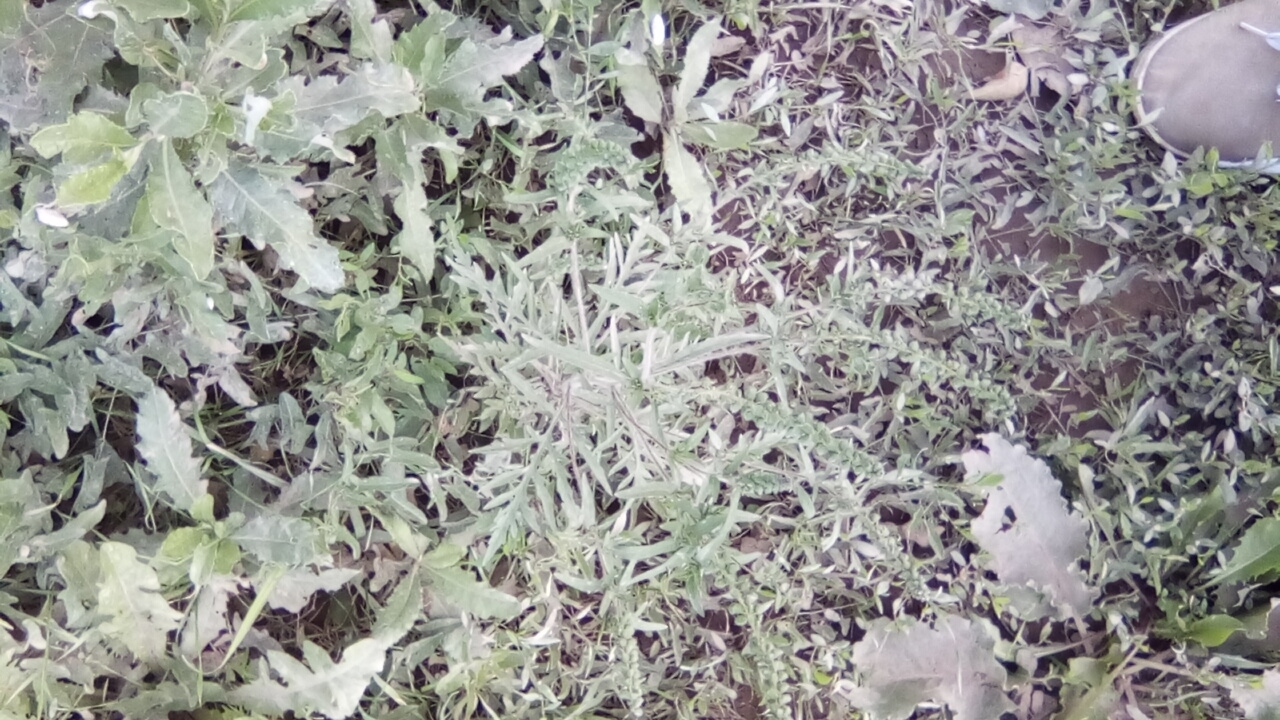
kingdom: Plantae
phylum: Tracheophyta
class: Magnoliopsida
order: Asterales
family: Asteraceae
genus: Ambrosia
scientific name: Ambrosia artemisiifolia
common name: Annual ragweed
